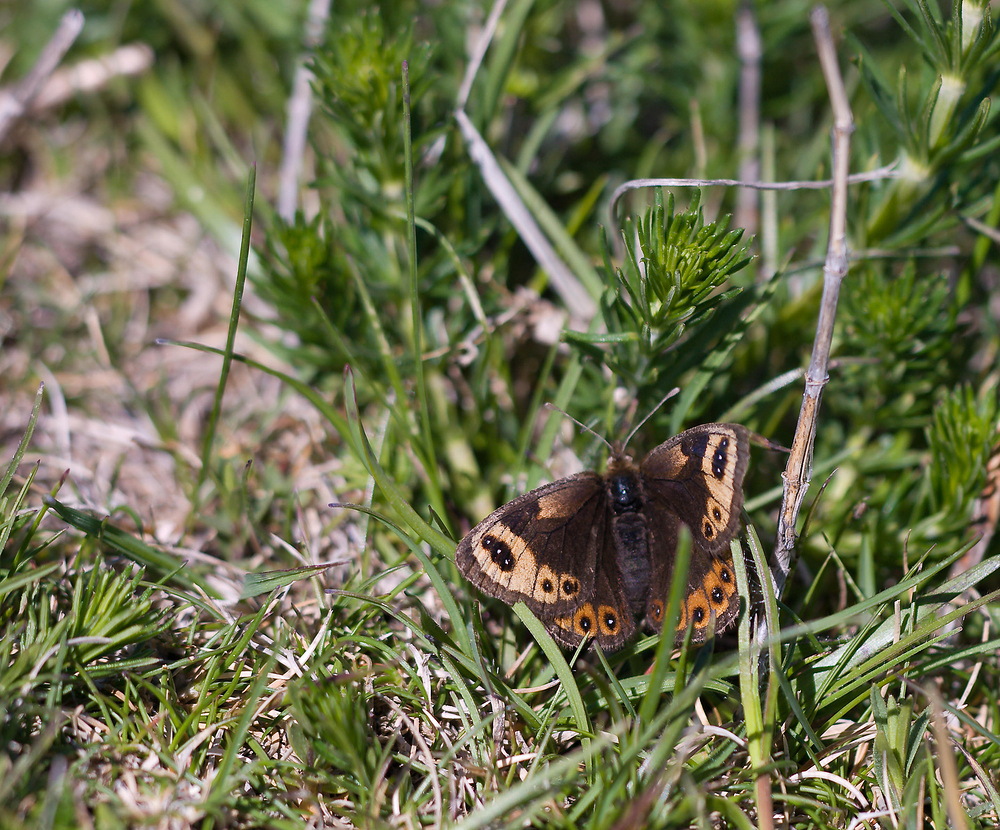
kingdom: Animalia
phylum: Arthropoda
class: Insecta
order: Lepidoptera
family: Nymphalidae
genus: Erebia
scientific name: Erebia epistygne
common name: Spring ringlet
